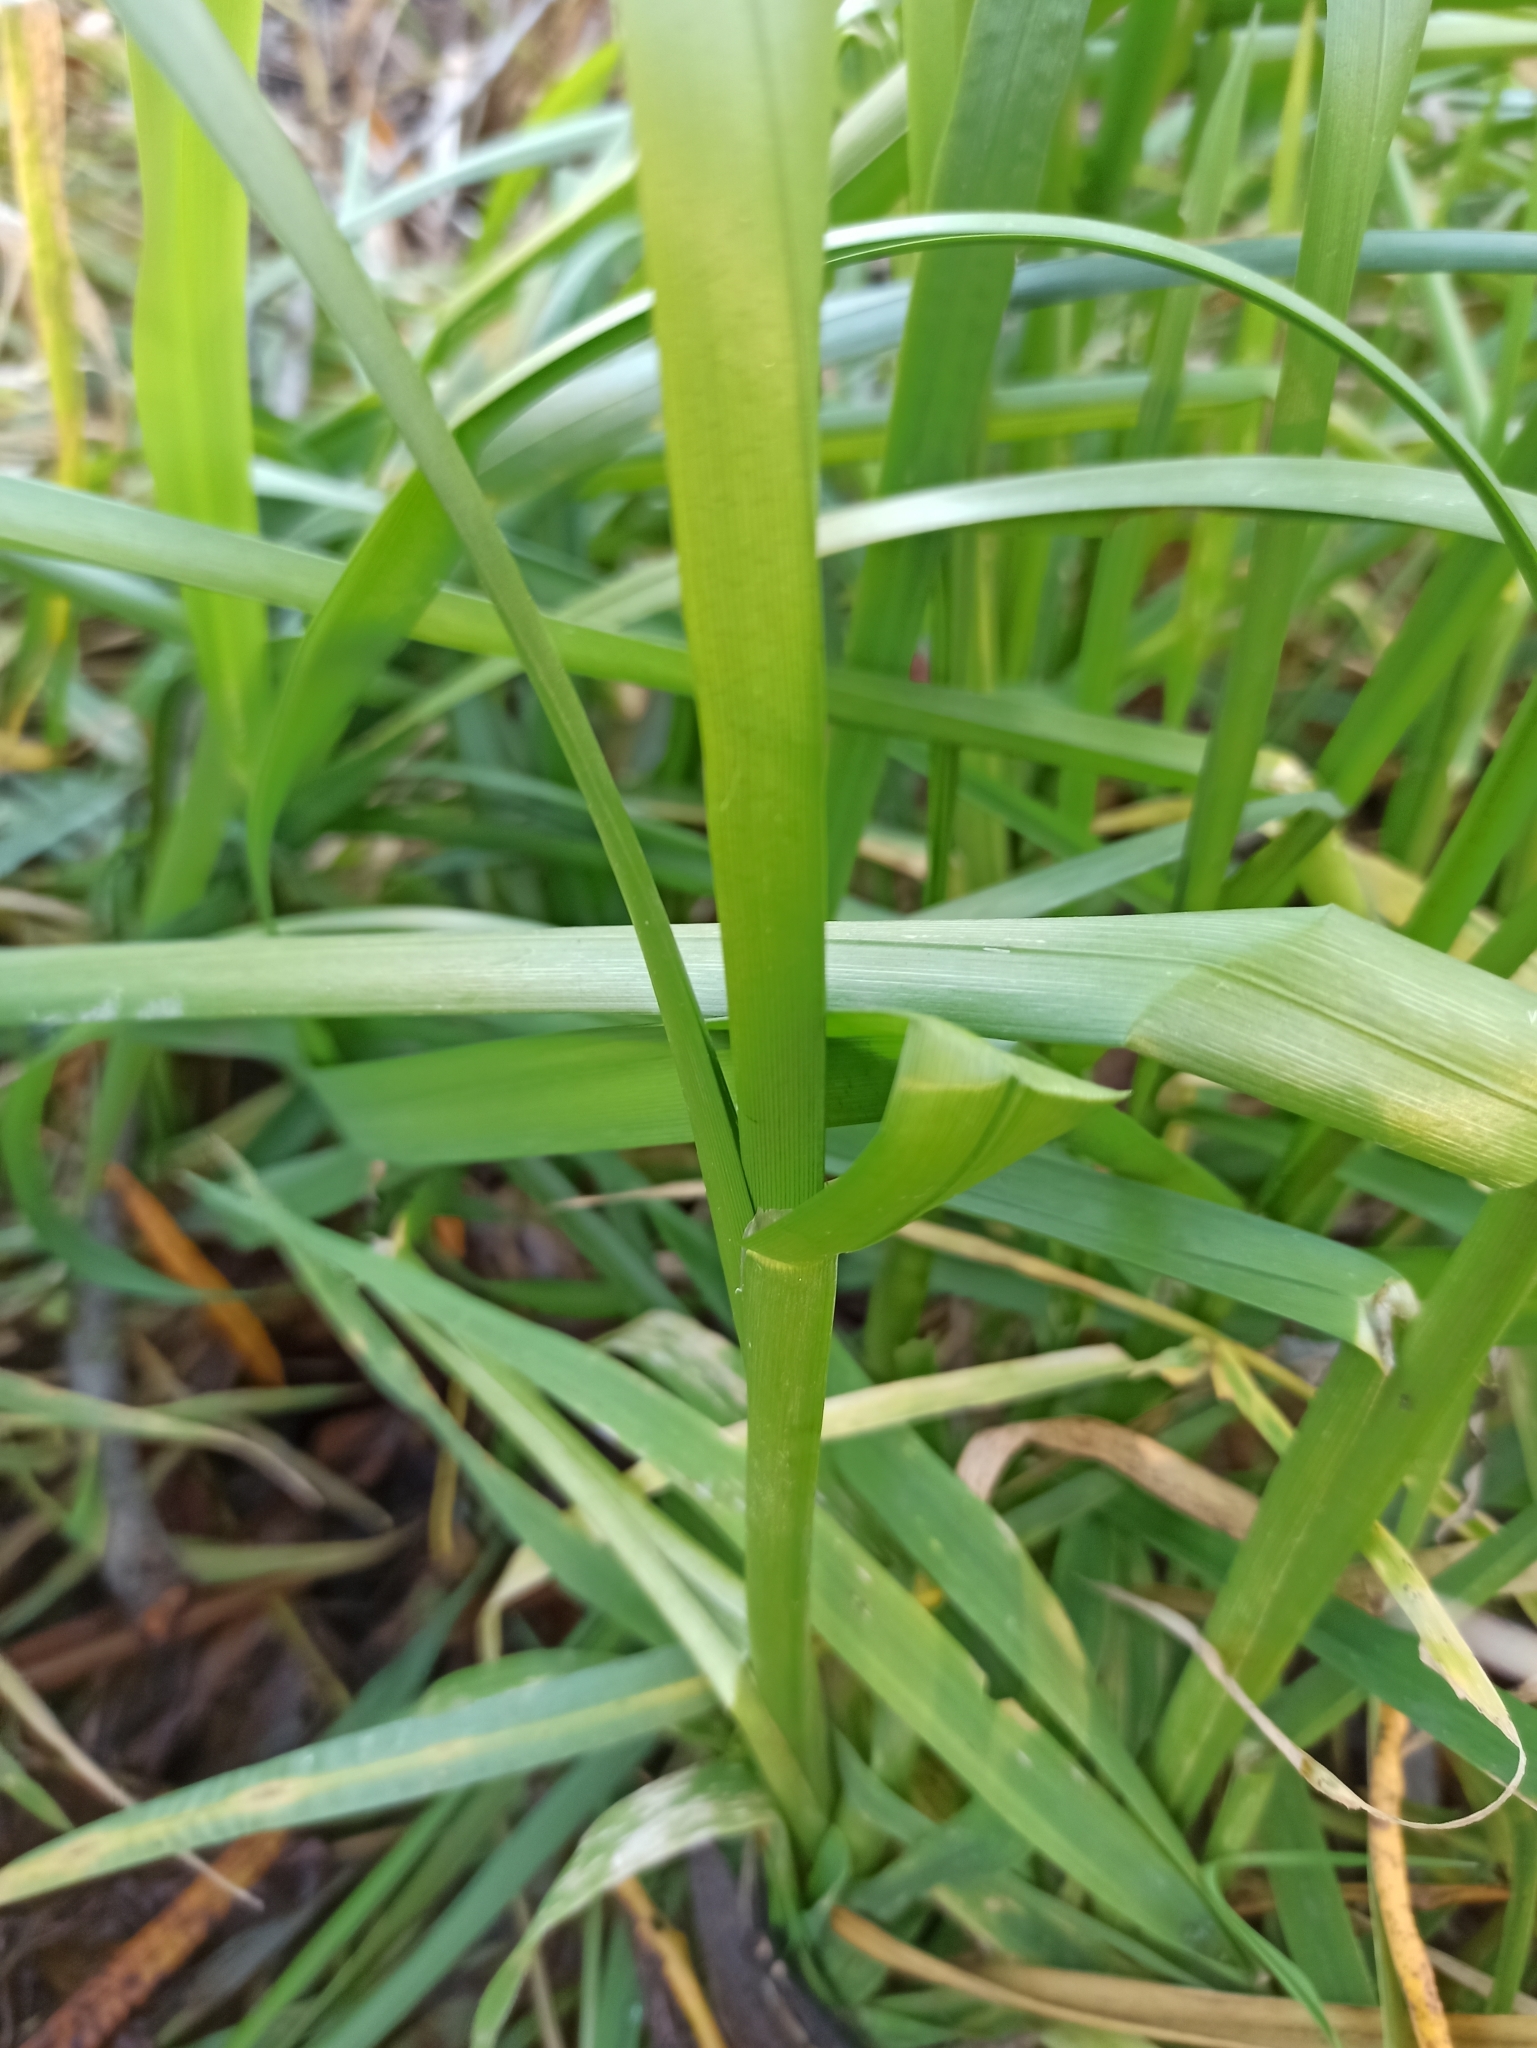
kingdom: Plantae
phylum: Tracheophyta
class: Liliopsida
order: Poales
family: Poaceae
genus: Glyceria
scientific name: Glyceria maxima
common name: Reed mannagrass
